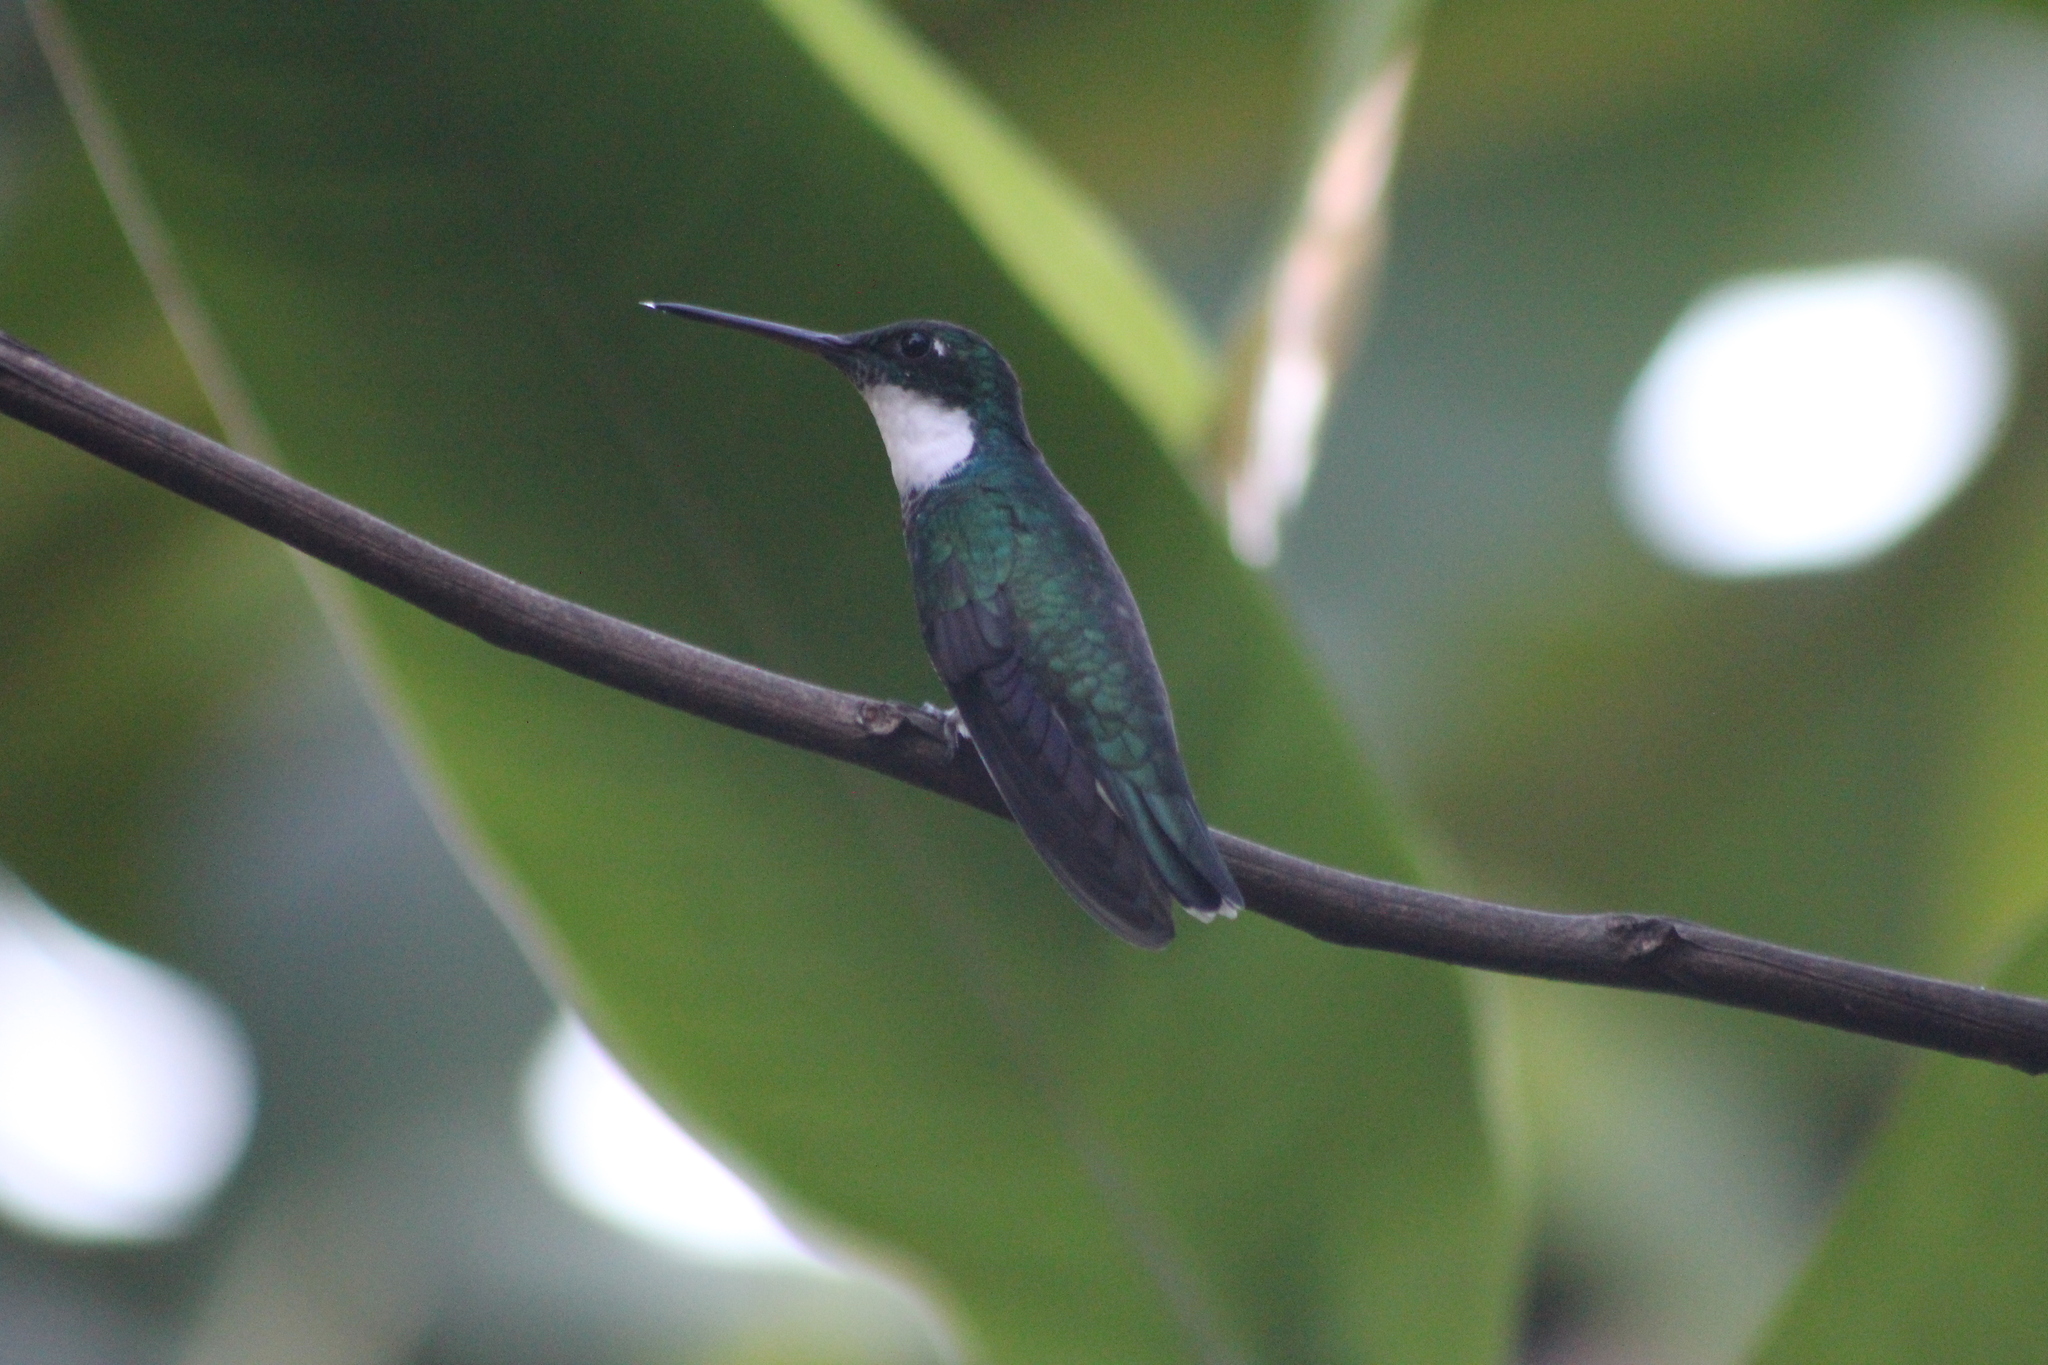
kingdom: Animalia
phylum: Chordata
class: Aves
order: Apodiformes
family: Trochilidae
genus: Leucochloris
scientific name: Leucochloris albicollis
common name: White-throated hummingbird
